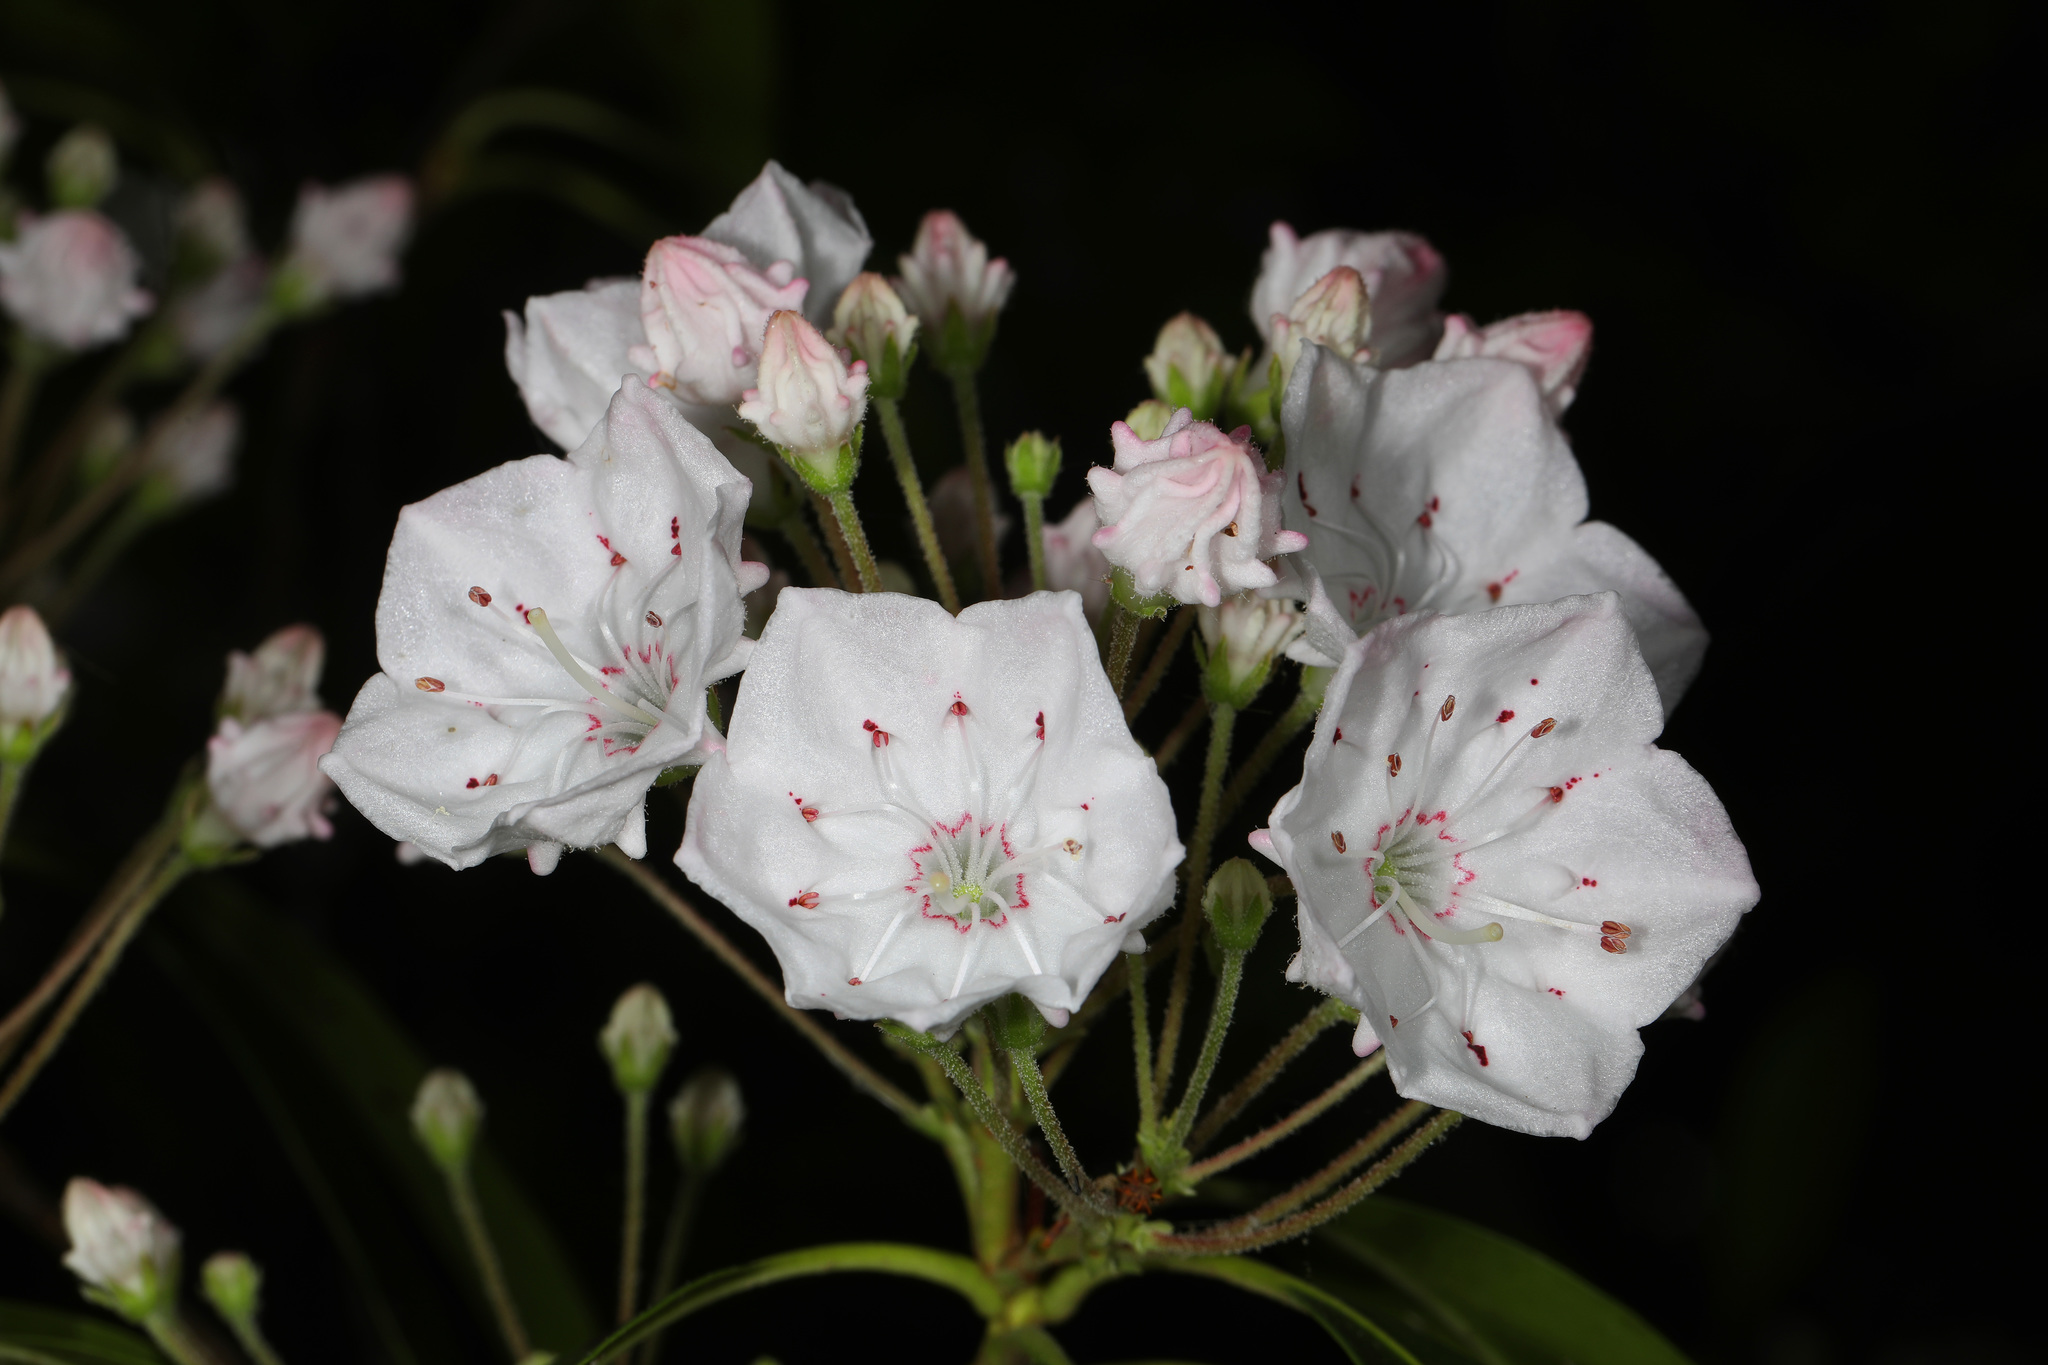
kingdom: Plantae
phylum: Tracheophyta
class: Magnoliopsida
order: Ericales
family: Ericaceae
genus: Kalmia
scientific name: Kalmia latifolia
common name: Mountain-laurel
